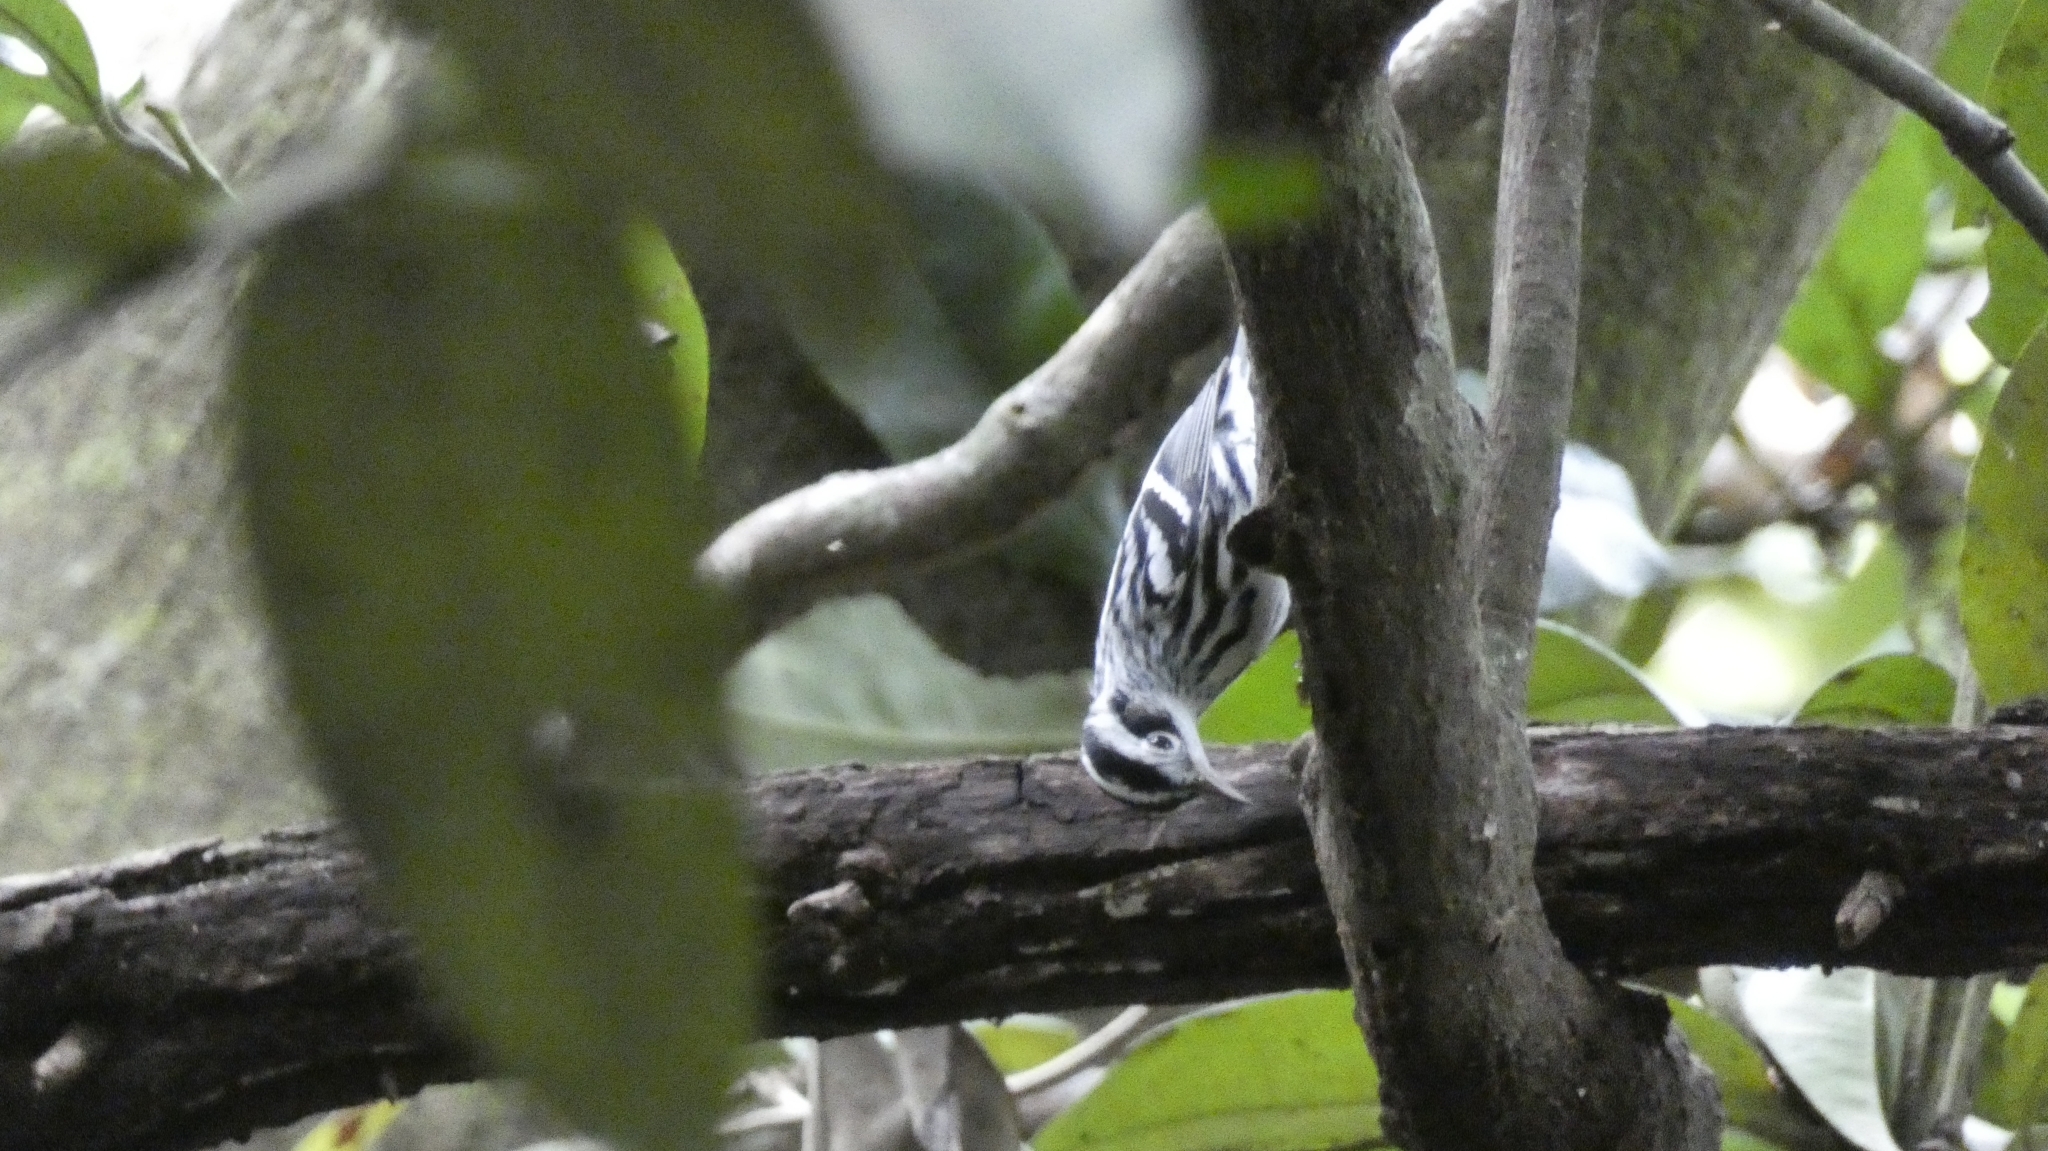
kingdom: Animalia
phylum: Chordata
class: Aves
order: Passeriformes
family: Parulidae
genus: Mniotilta
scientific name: Mniotilta varia
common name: Black-and-white warbler
